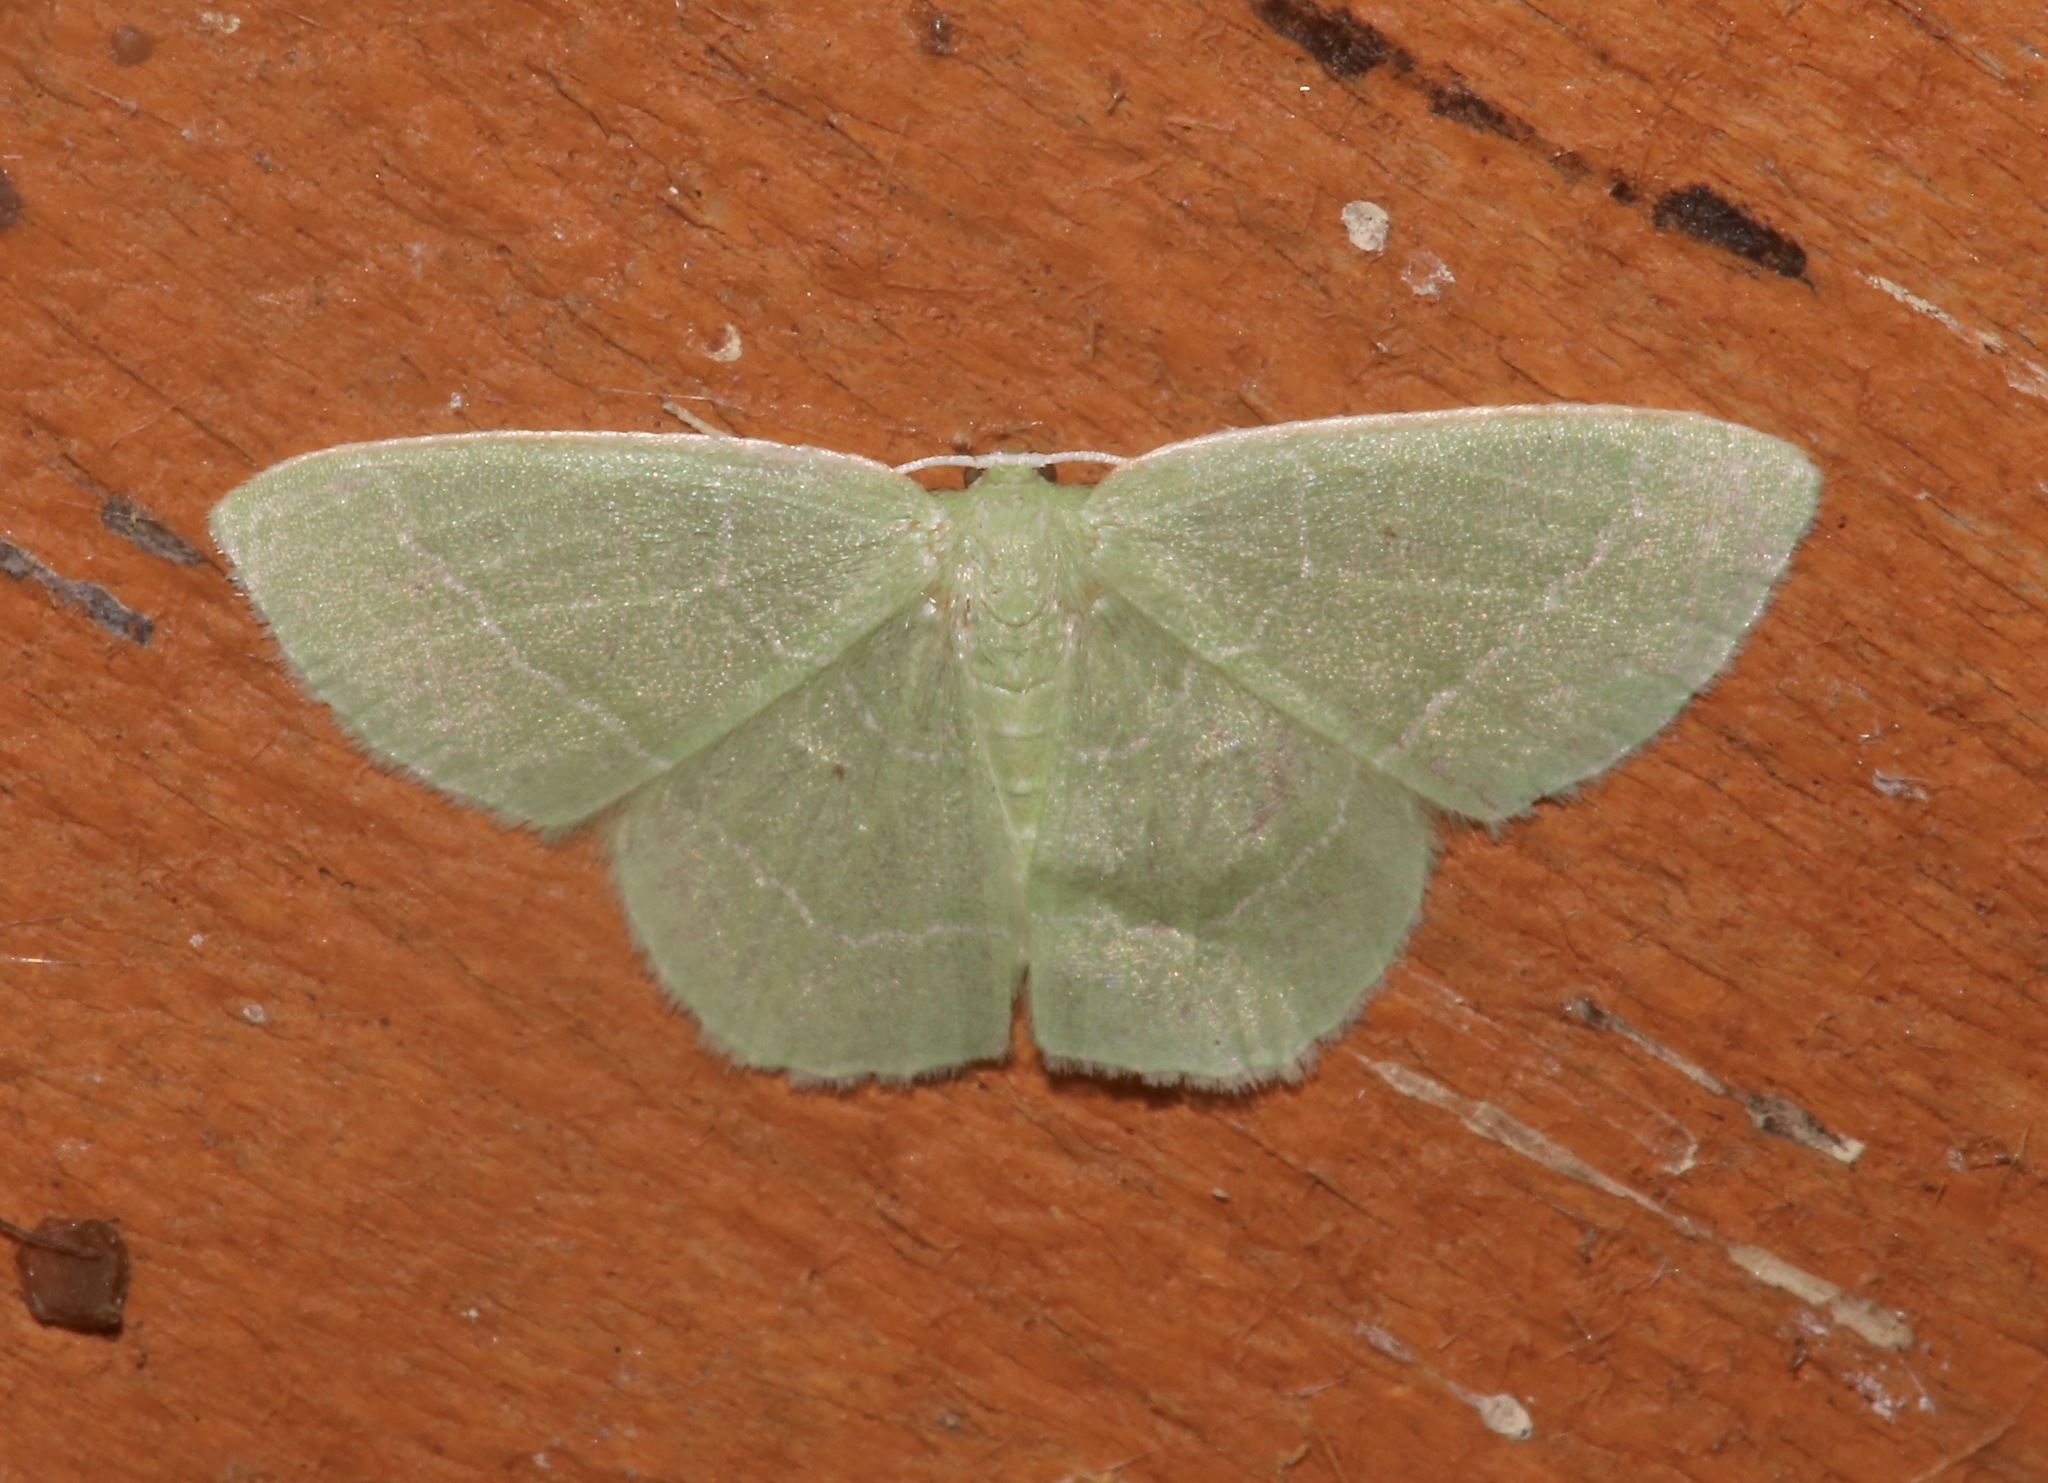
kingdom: Animalia
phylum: Arthropoda
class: Insecta
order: Lepidoptera
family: Geometridae
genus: Nemoria
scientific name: Nemoria elfa
